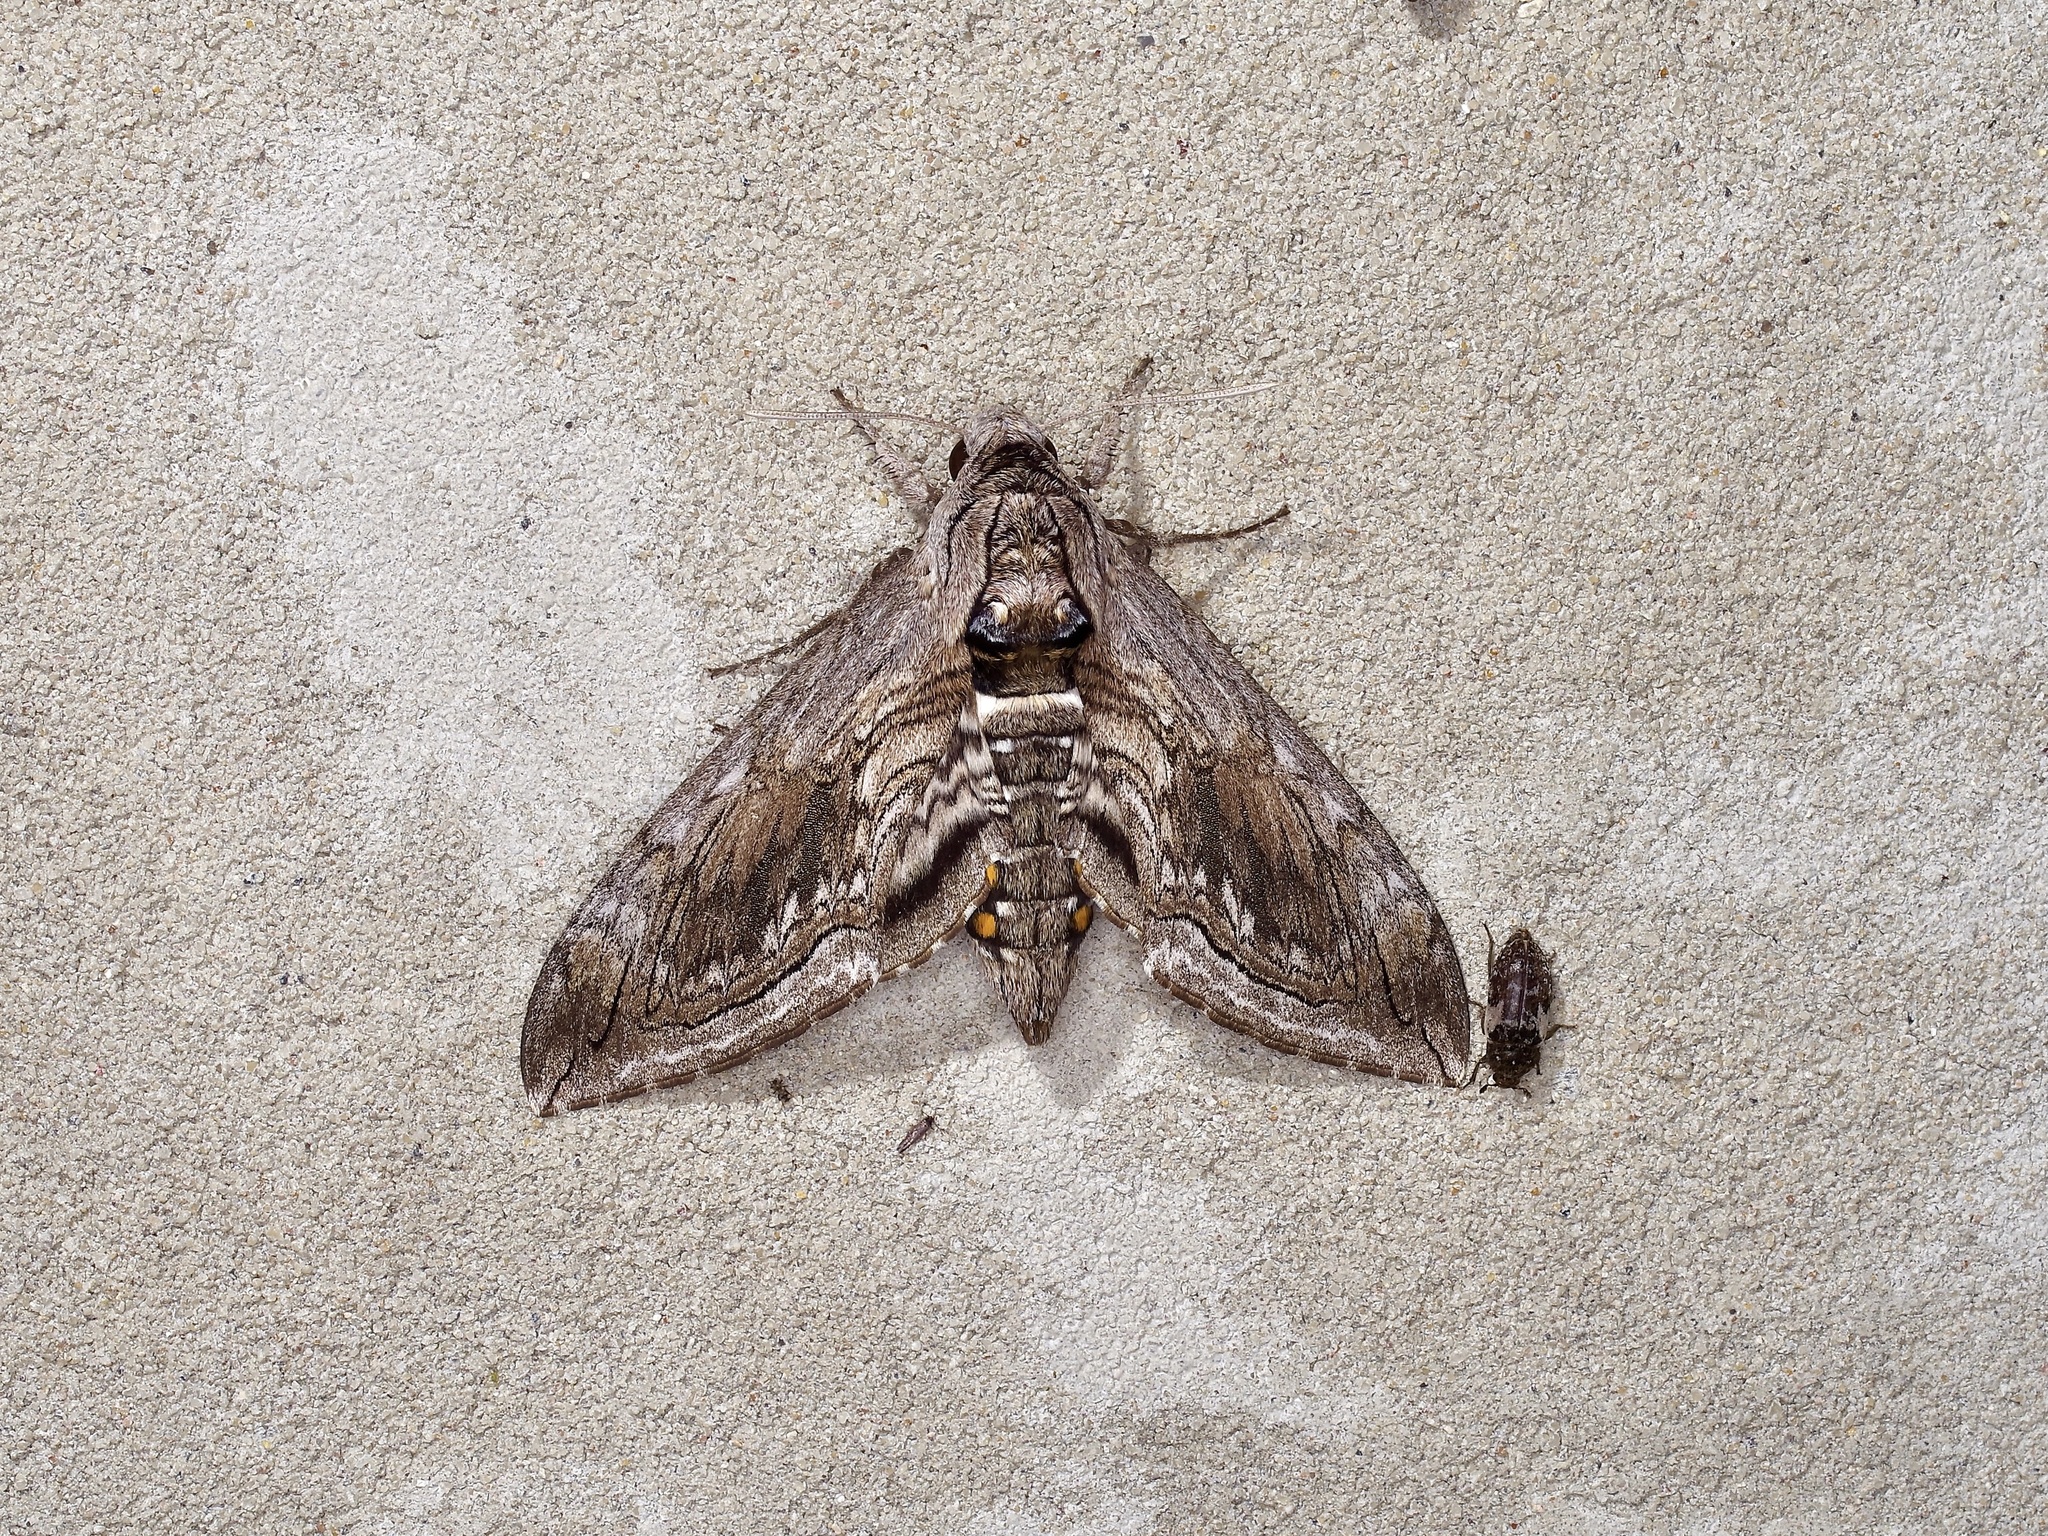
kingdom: Animalia
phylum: Arthropoda
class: Insecta
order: Lepidoptera
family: Sphingidae
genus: Manduca
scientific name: Manduca quinquemaculatus
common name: Five-spotted hawk-moth
